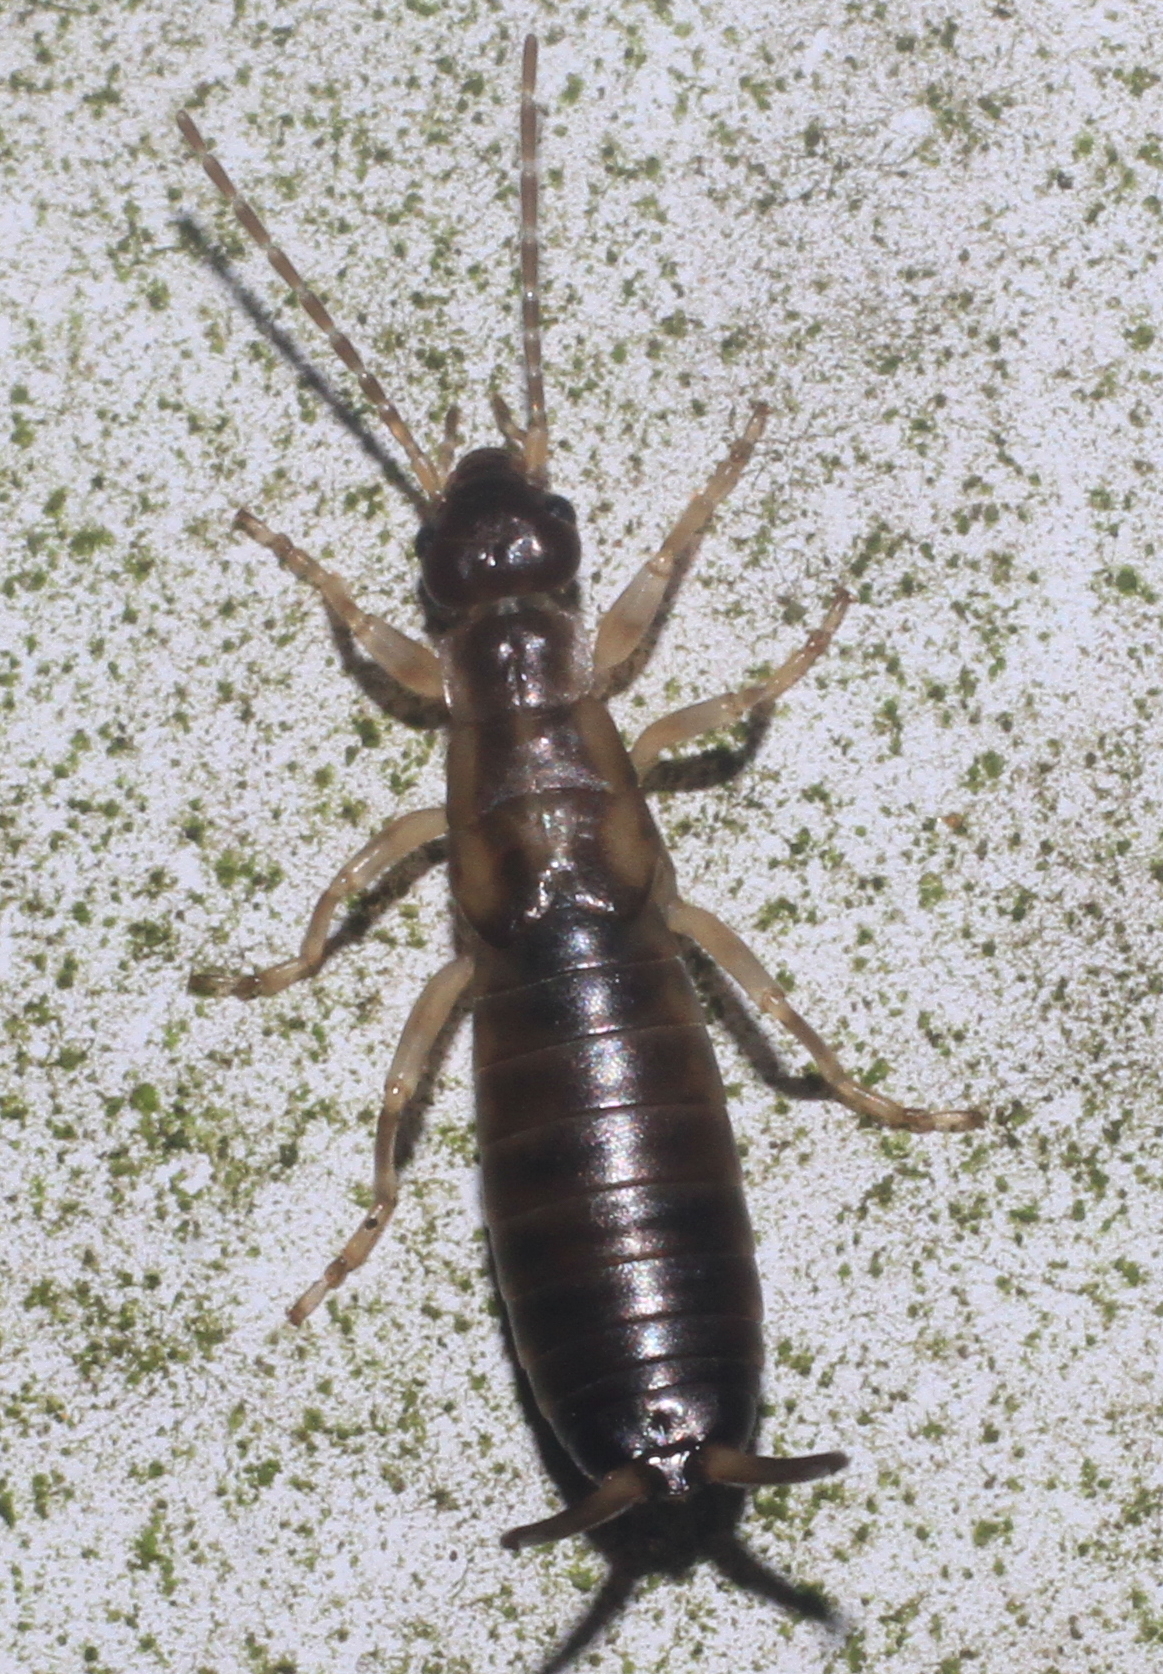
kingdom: Animalia
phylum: Arthropoda
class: Insecta
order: Dermaptera
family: Forficulidae
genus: Forficula
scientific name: Forficula
